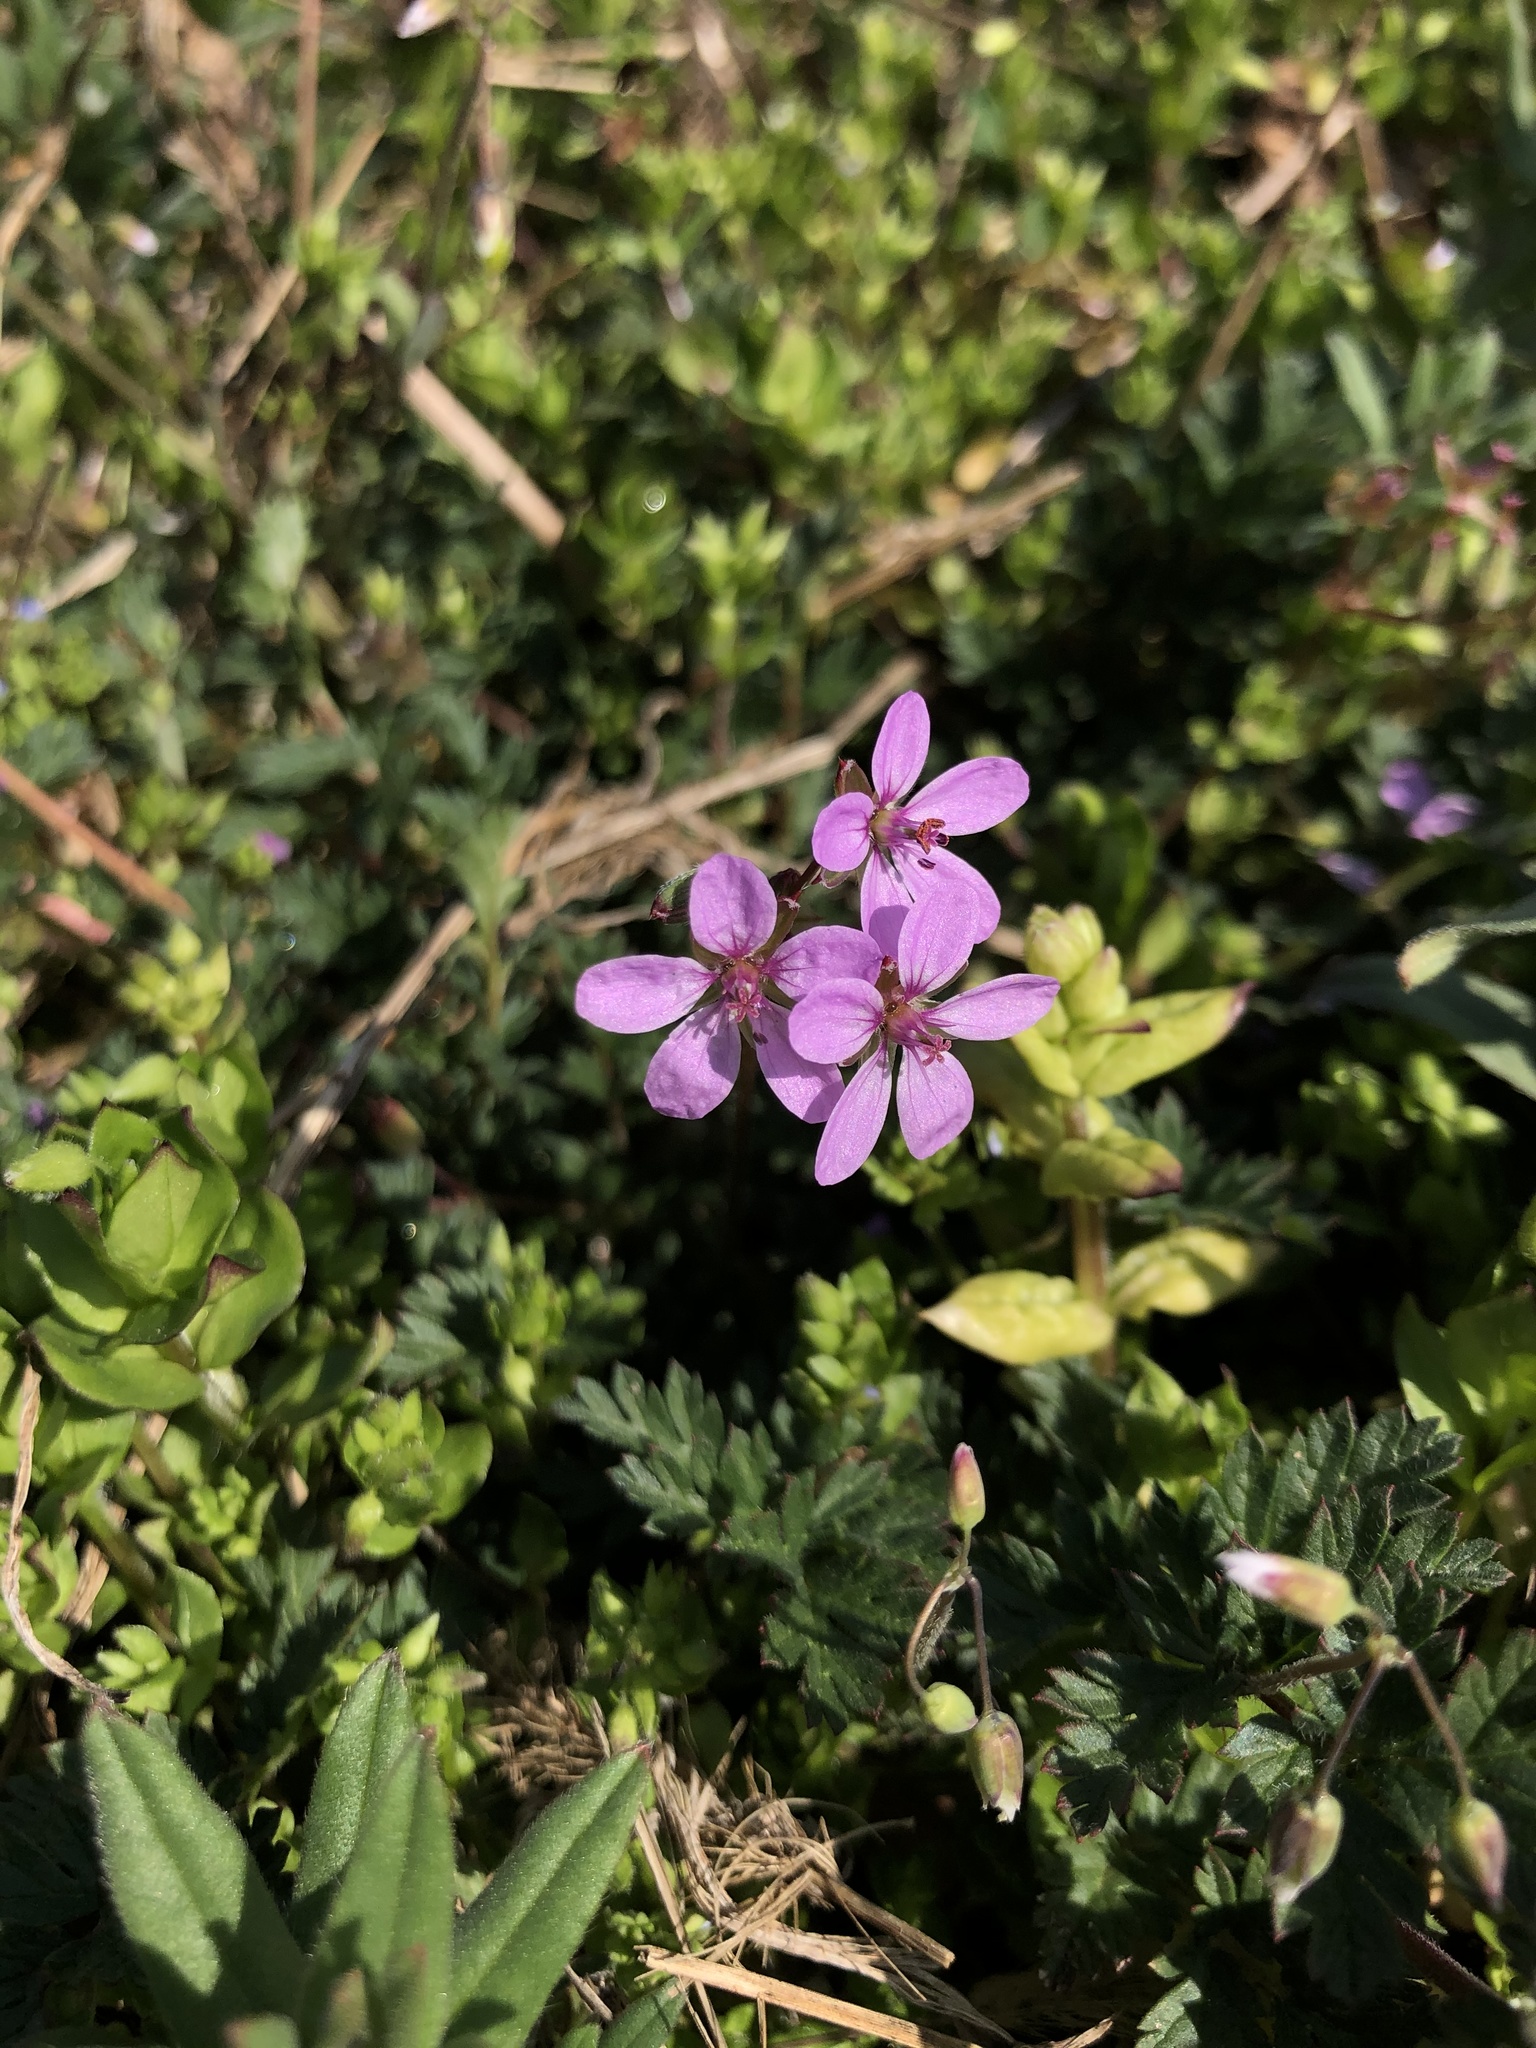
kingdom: Plantae
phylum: Tracheophyta
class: Magnoliopsida
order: Geraniales
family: Geraniaceae
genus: Erodium
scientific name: Erodium cicutarium
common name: Common stork's-bill
